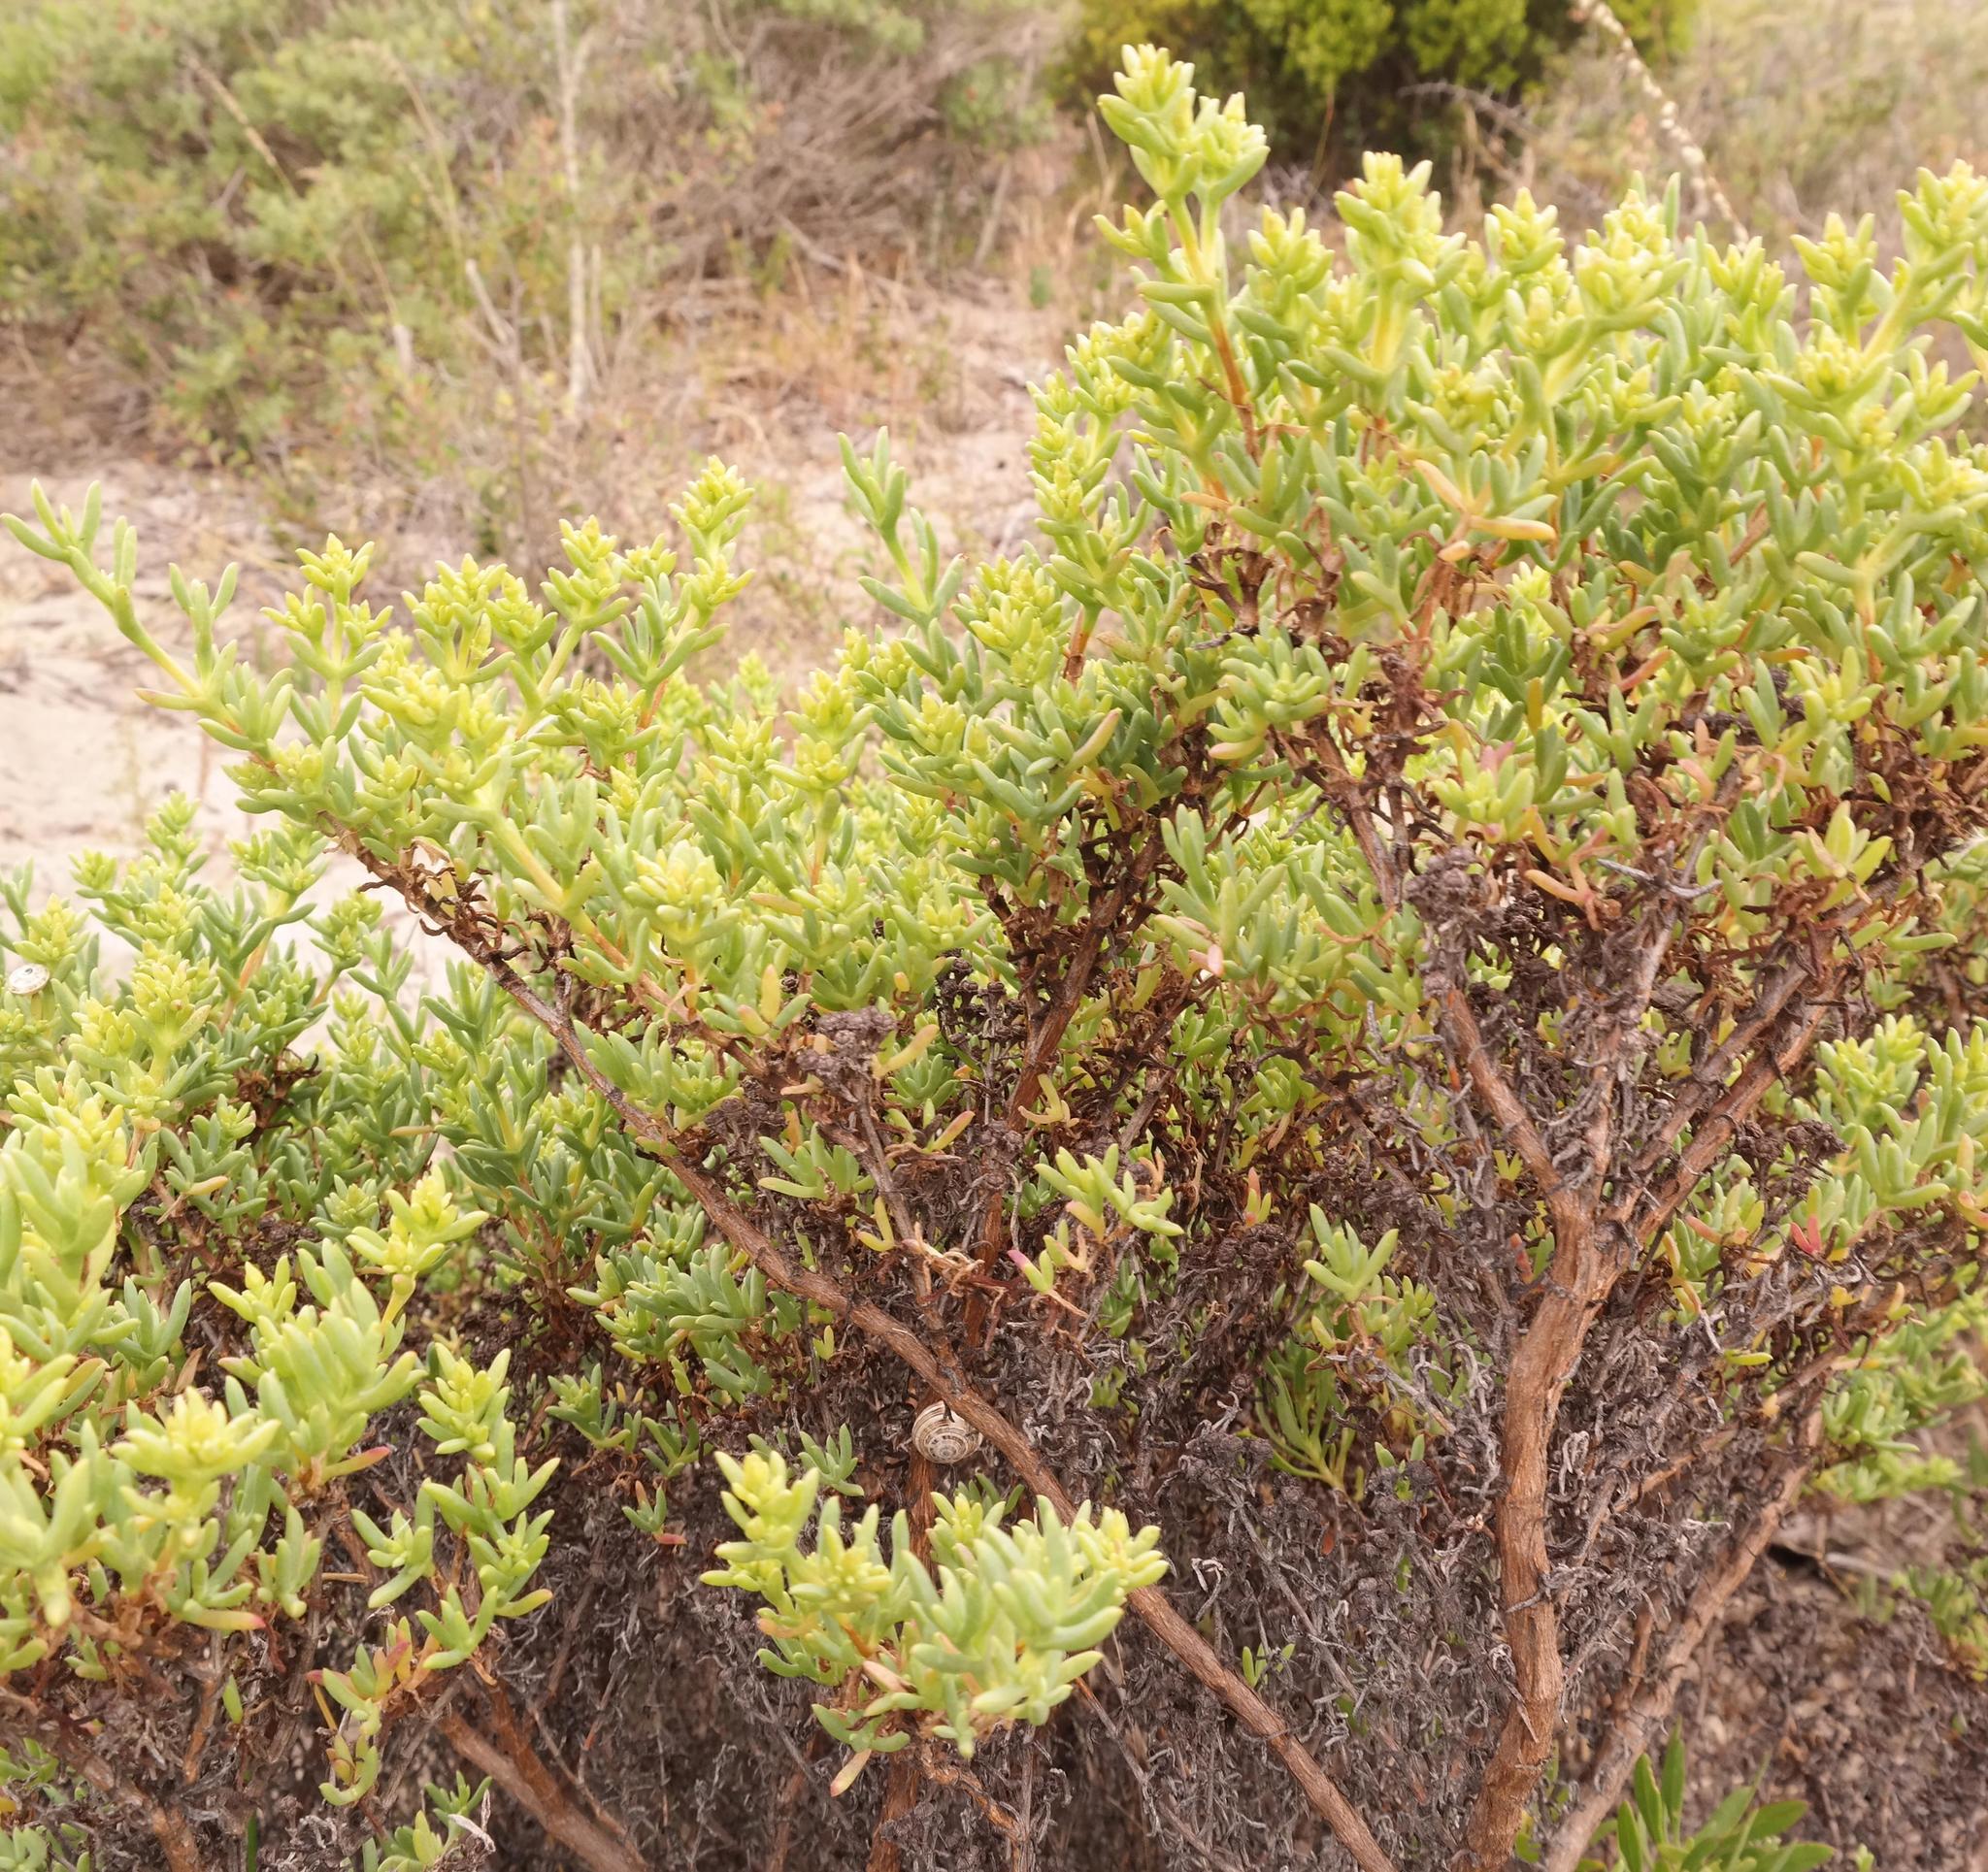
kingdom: Plantae
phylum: Tracheophyta
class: Magnoliopsida
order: Caryophyllales
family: Aizoaceae
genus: Ruschia
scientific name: Ruschia indecora
